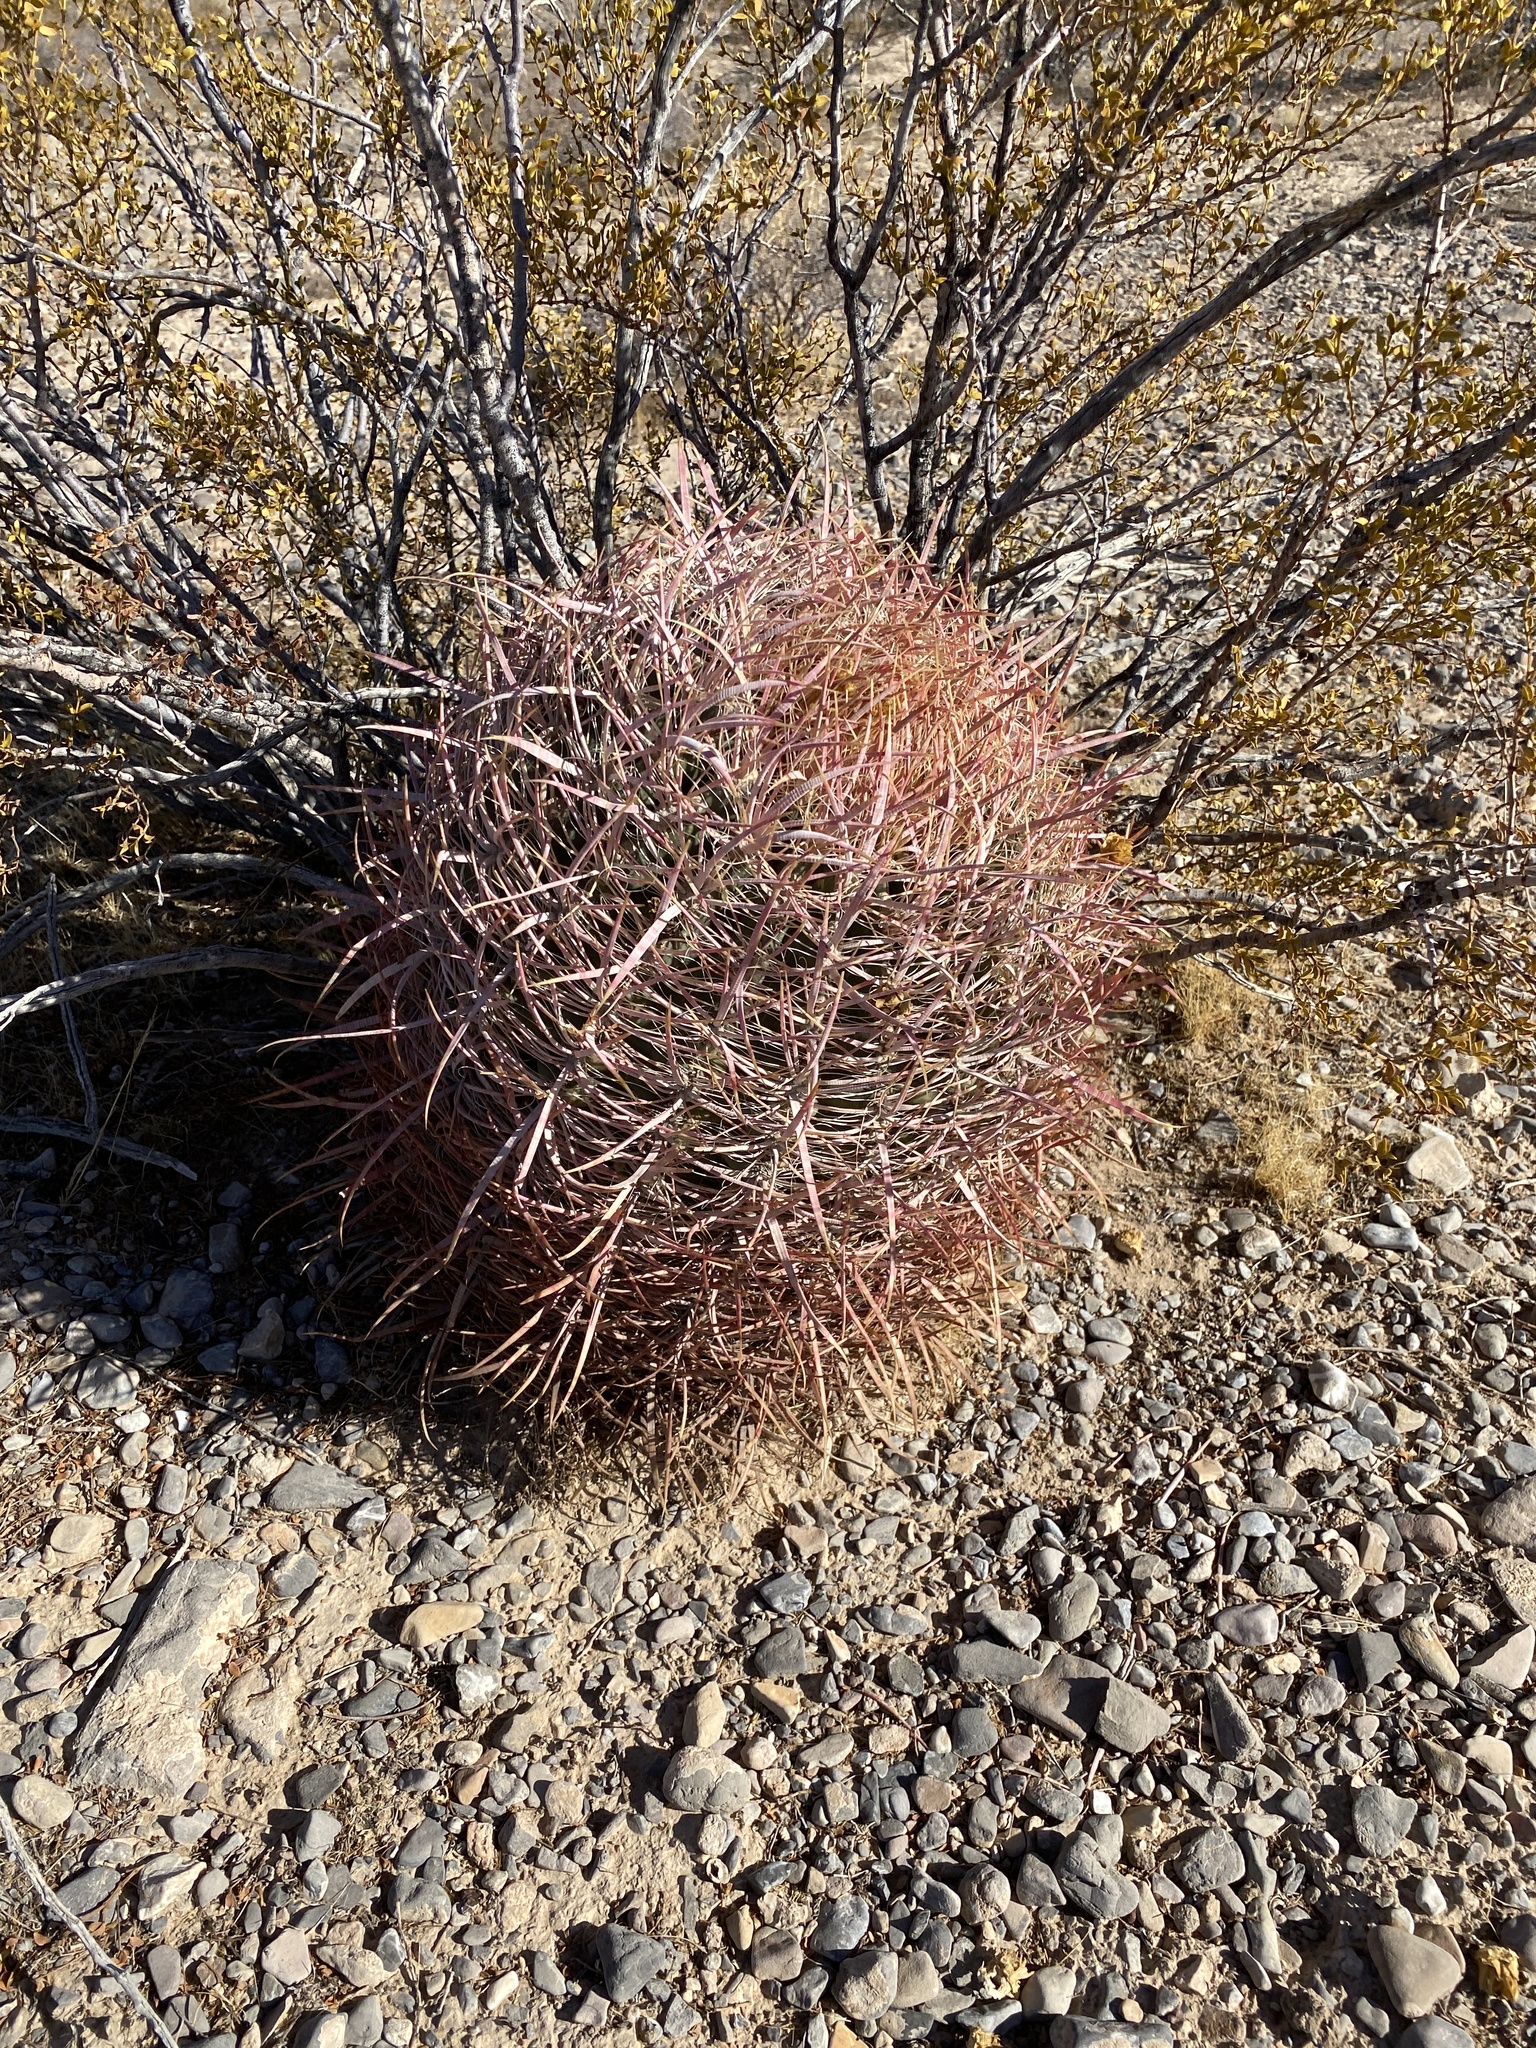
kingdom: Plantae
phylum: Tracheophyta
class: Magnoliopsida
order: Caryophyllales
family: Cactaceae
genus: Ferocactus
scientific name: Ferocactus cylindraceus
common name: California barrel cactus
